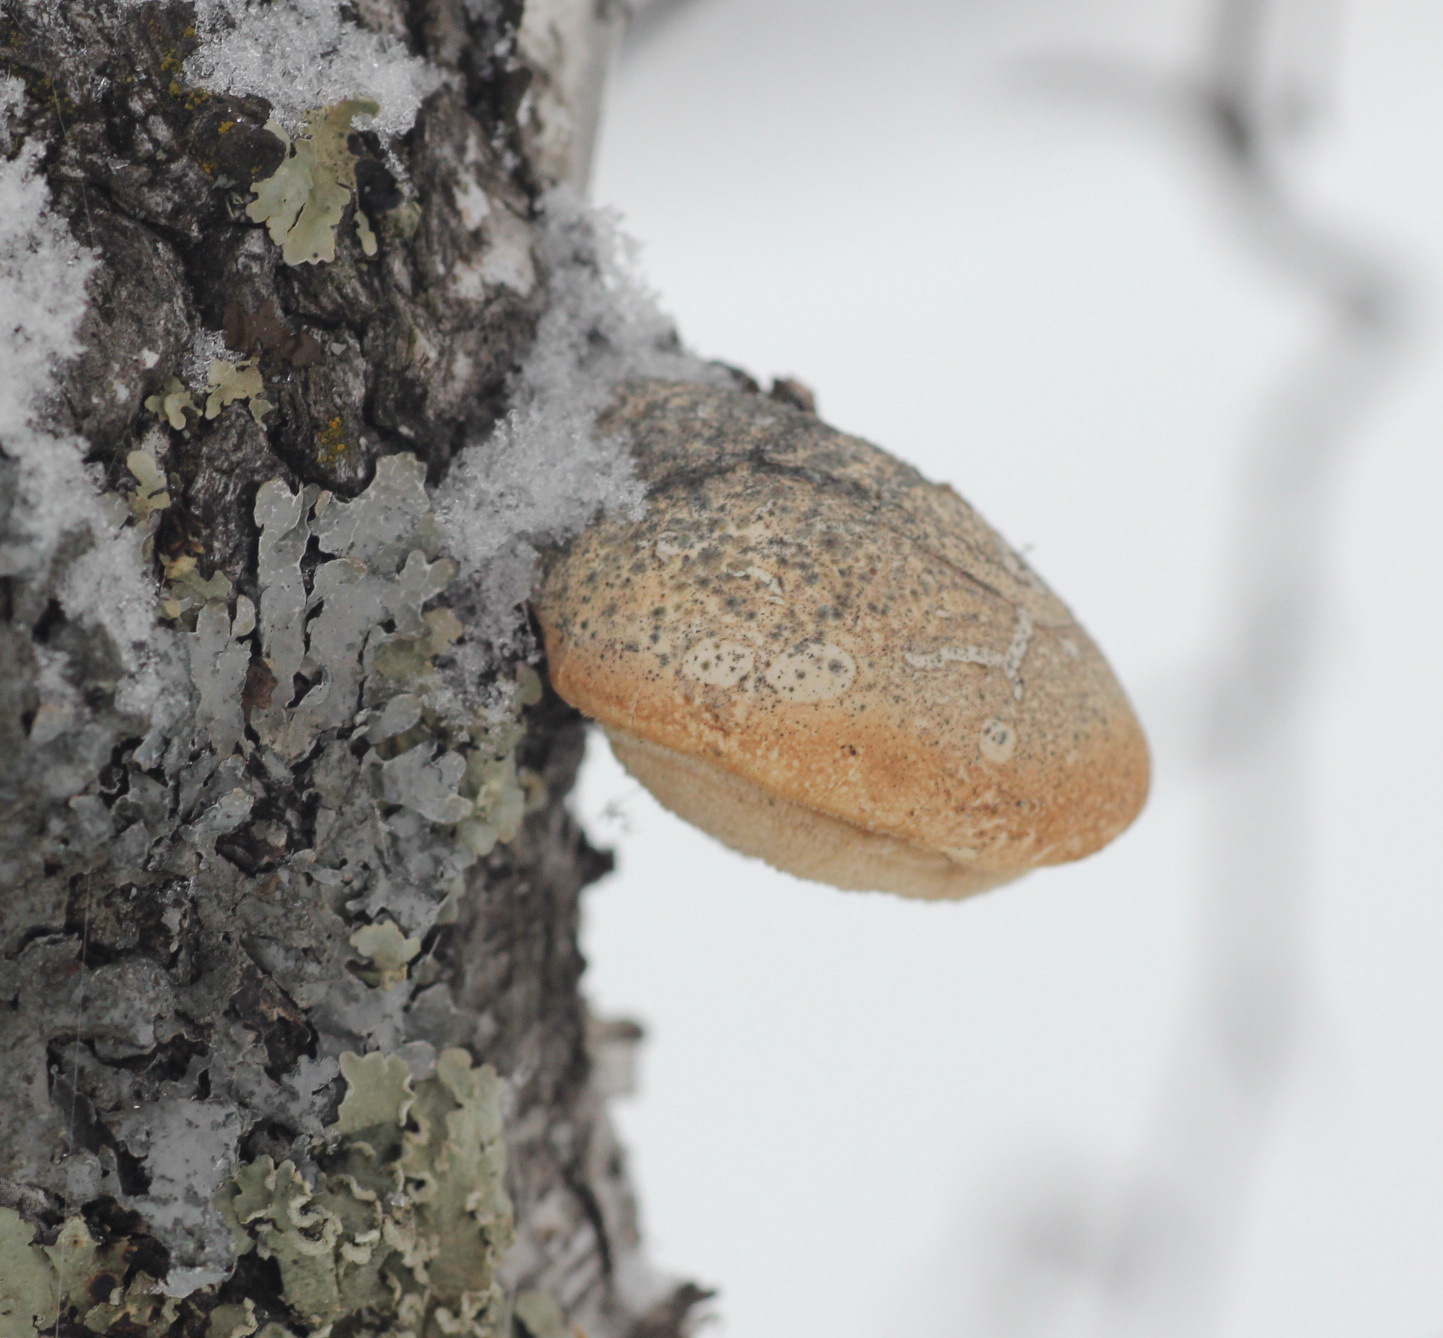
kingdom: Fungi
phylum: Basidiomycota
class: Agaricomycetes
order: Polyporales
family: Fomitopsidaceae
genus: Fomitopsis
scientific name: Fomitopsis betulina
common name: Birch polypore
